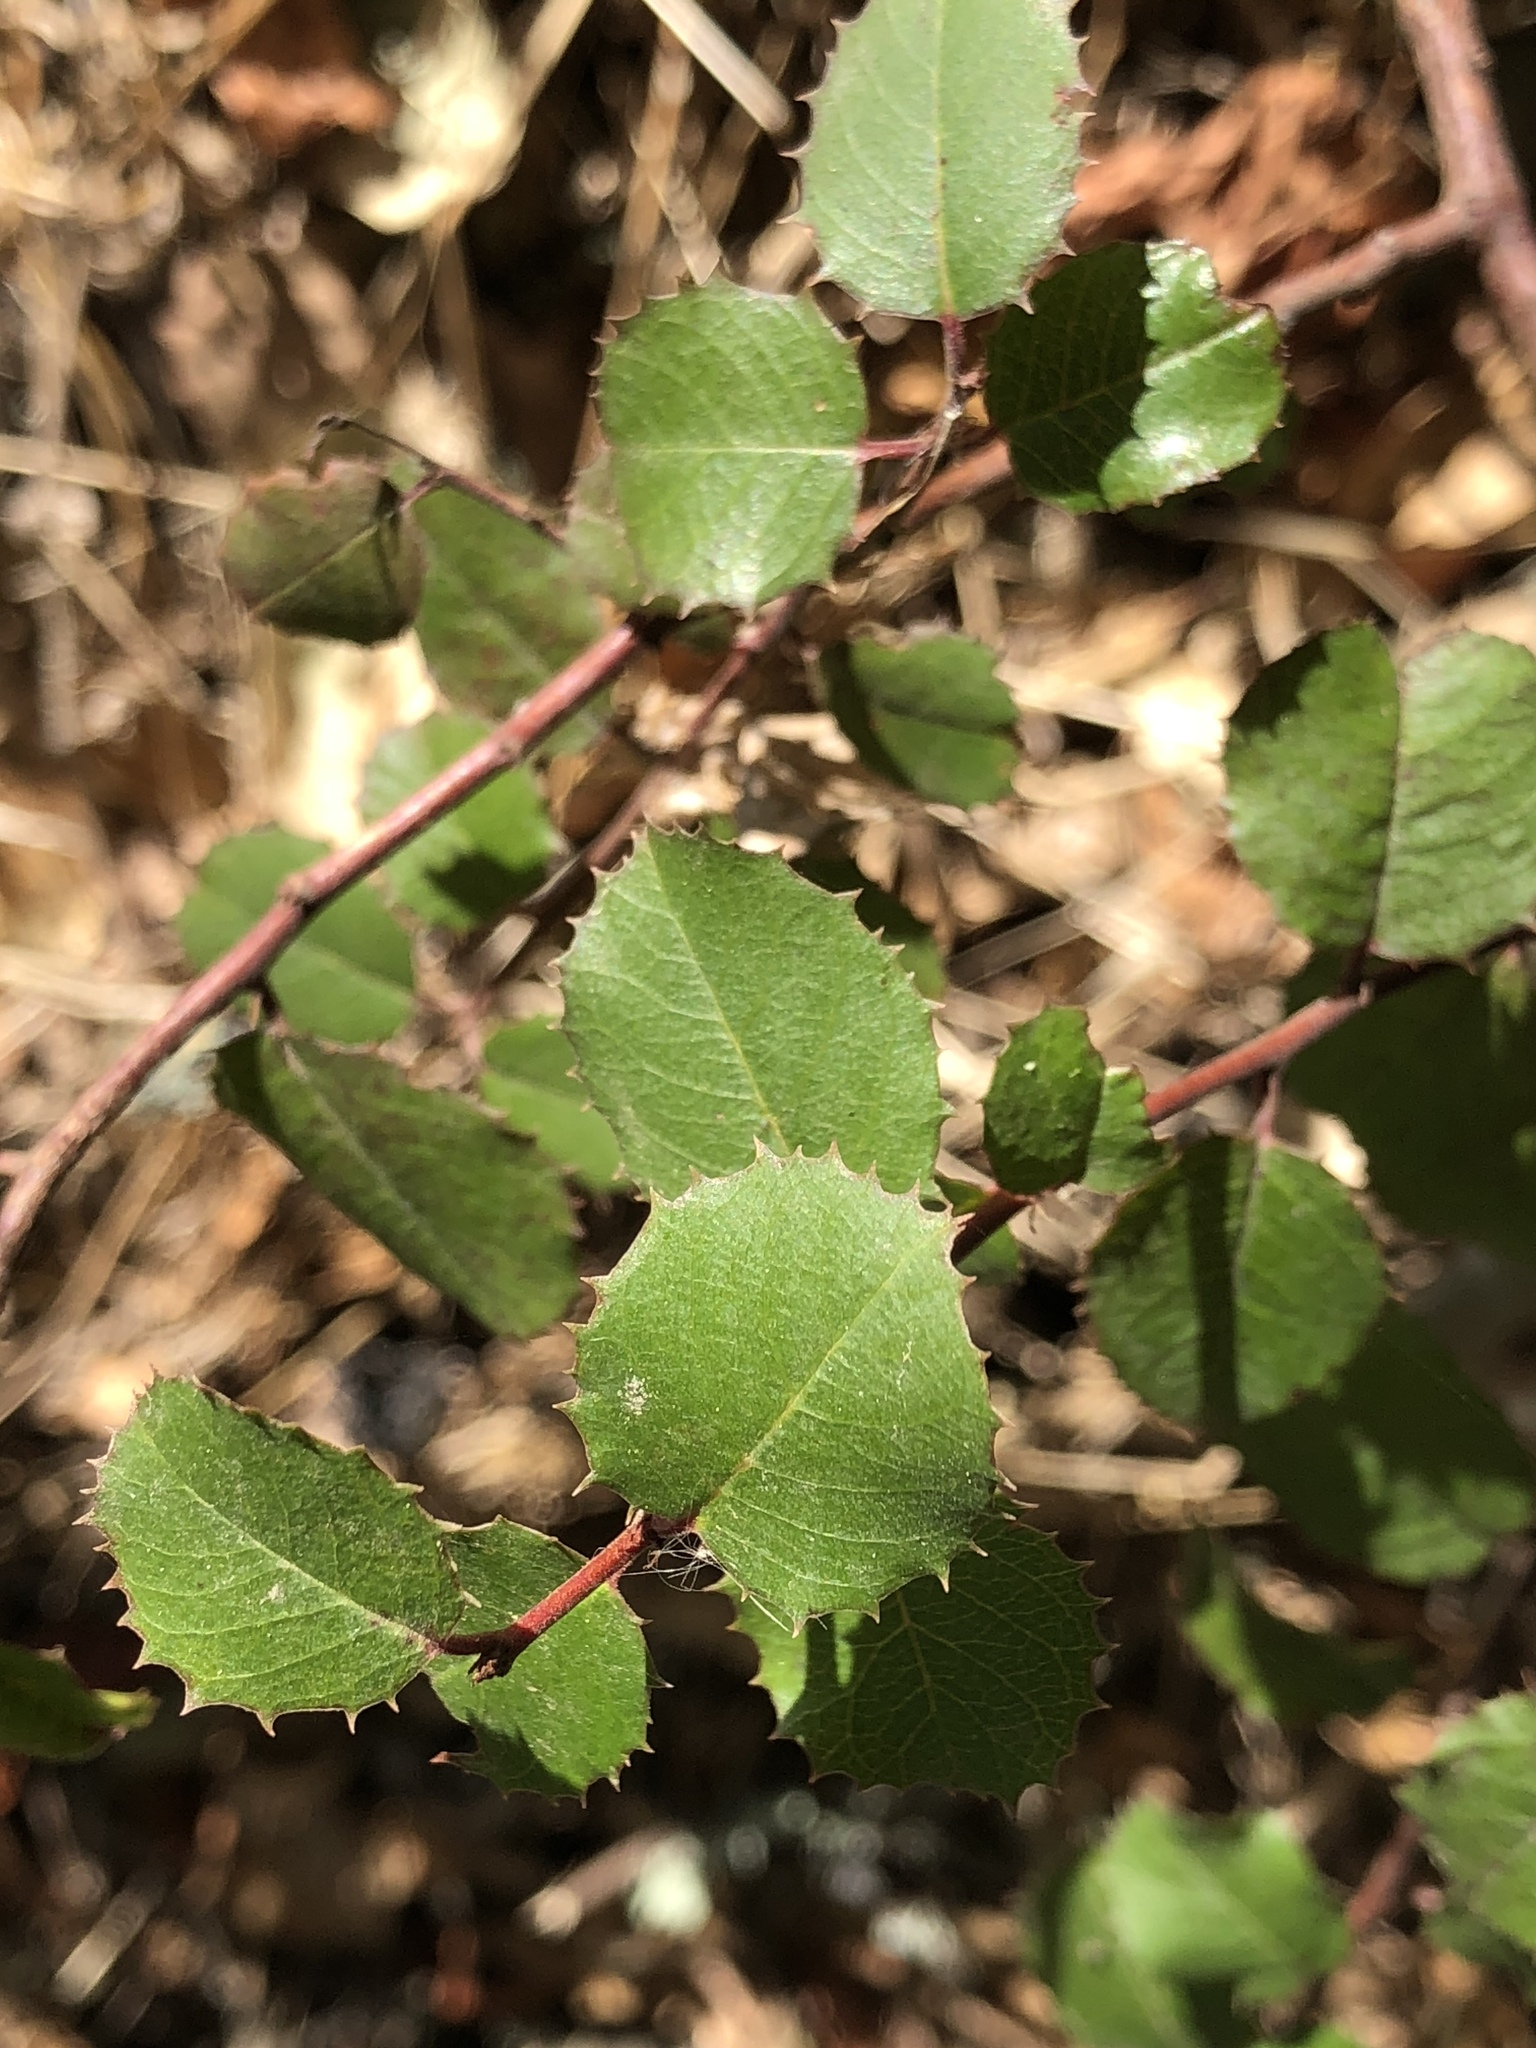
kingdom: Plantae
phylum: Tracheophyta
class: Magnoliopsida
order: Rosales
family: Rhamnaceae
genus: Endotropis
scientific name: Endotropis crocea
